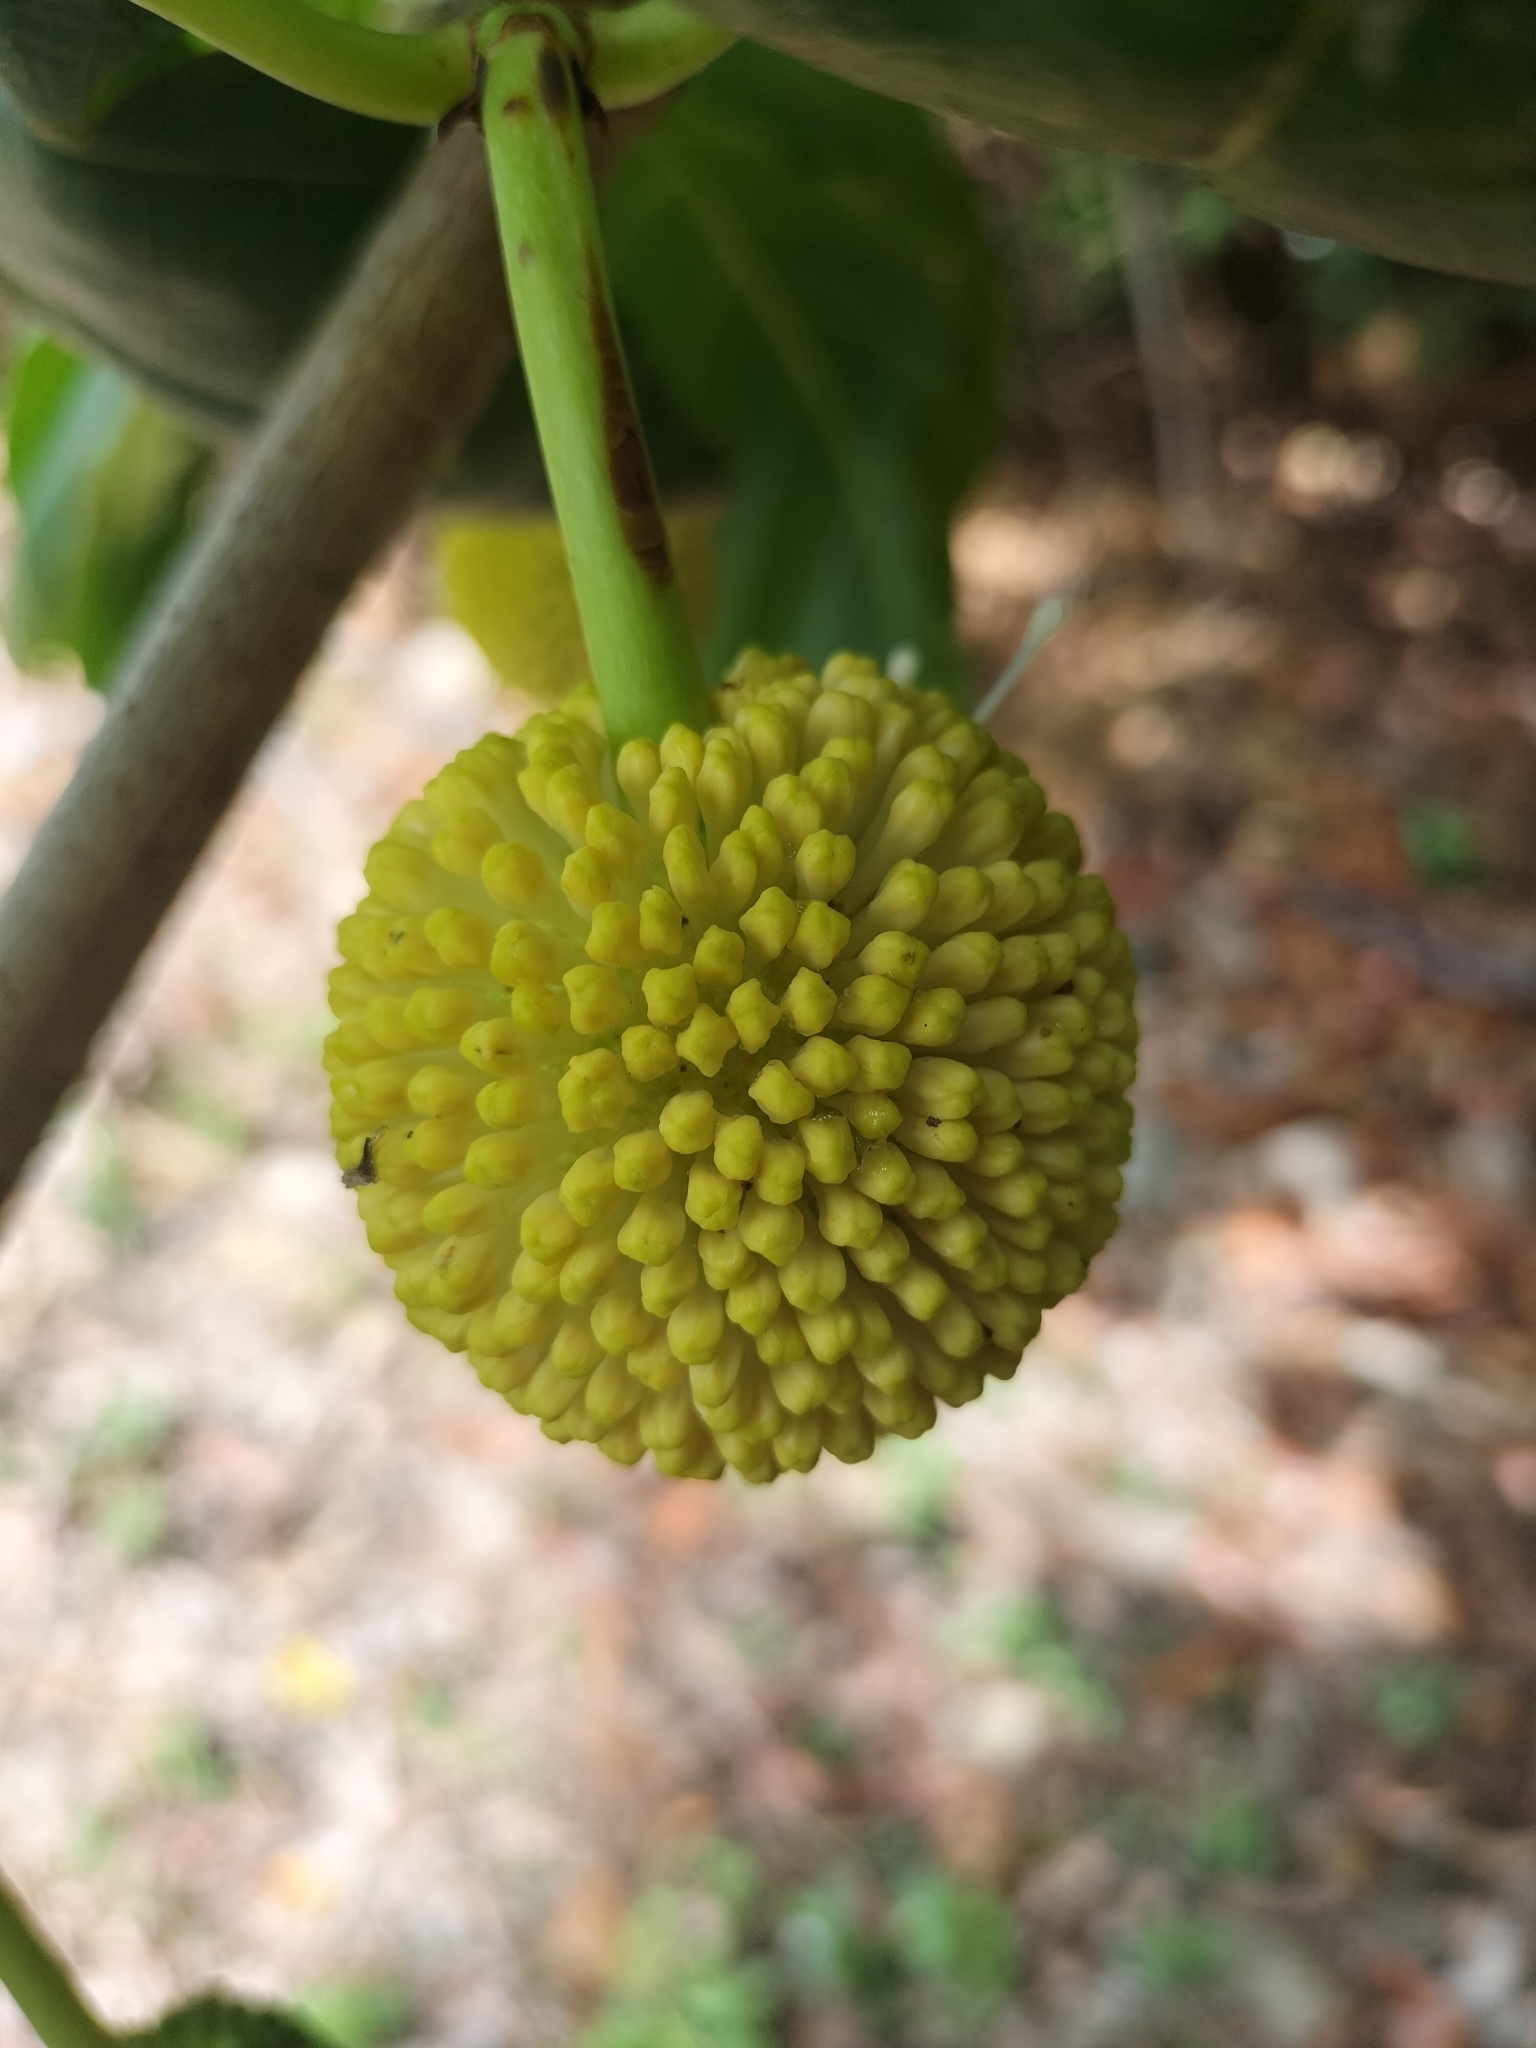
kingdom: Plantae
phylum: Tracheophyta
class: Magnoliopsida
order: Gentianales
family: Rubiaceae
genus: Nauclea
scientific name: Nauclea orientalis
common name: Leichhardt-pine
